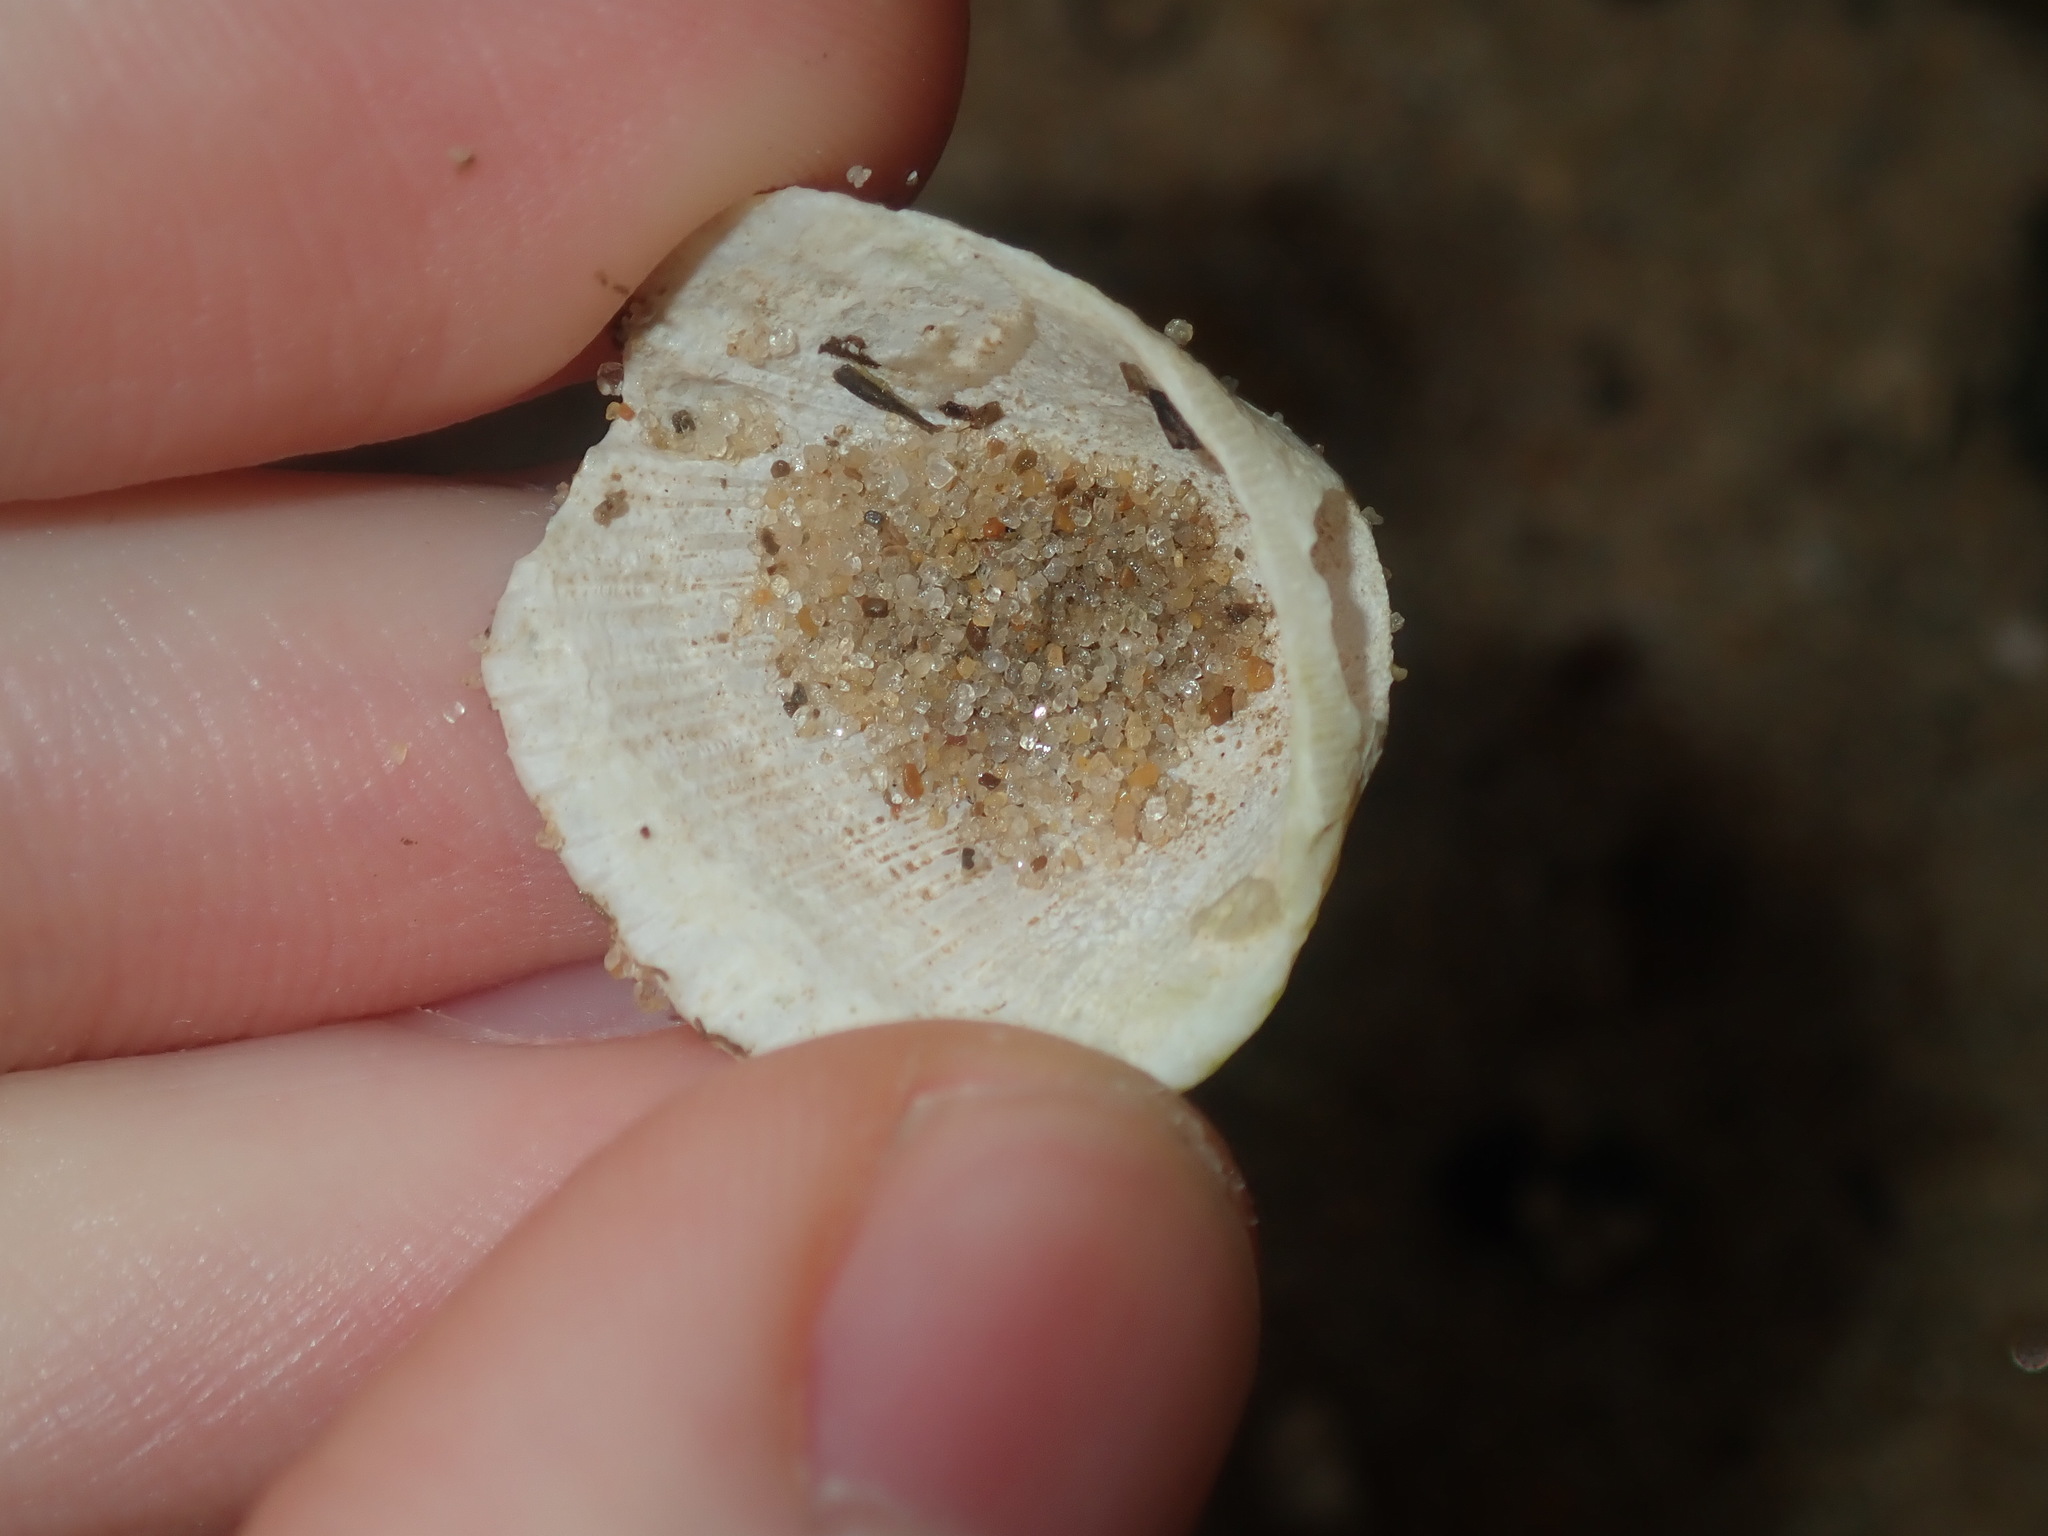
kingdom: Animalia
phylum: Mollusca
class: Bivalvia
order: Arcida
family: Arcidae
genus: Anadara
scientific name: Anadara trapezia
